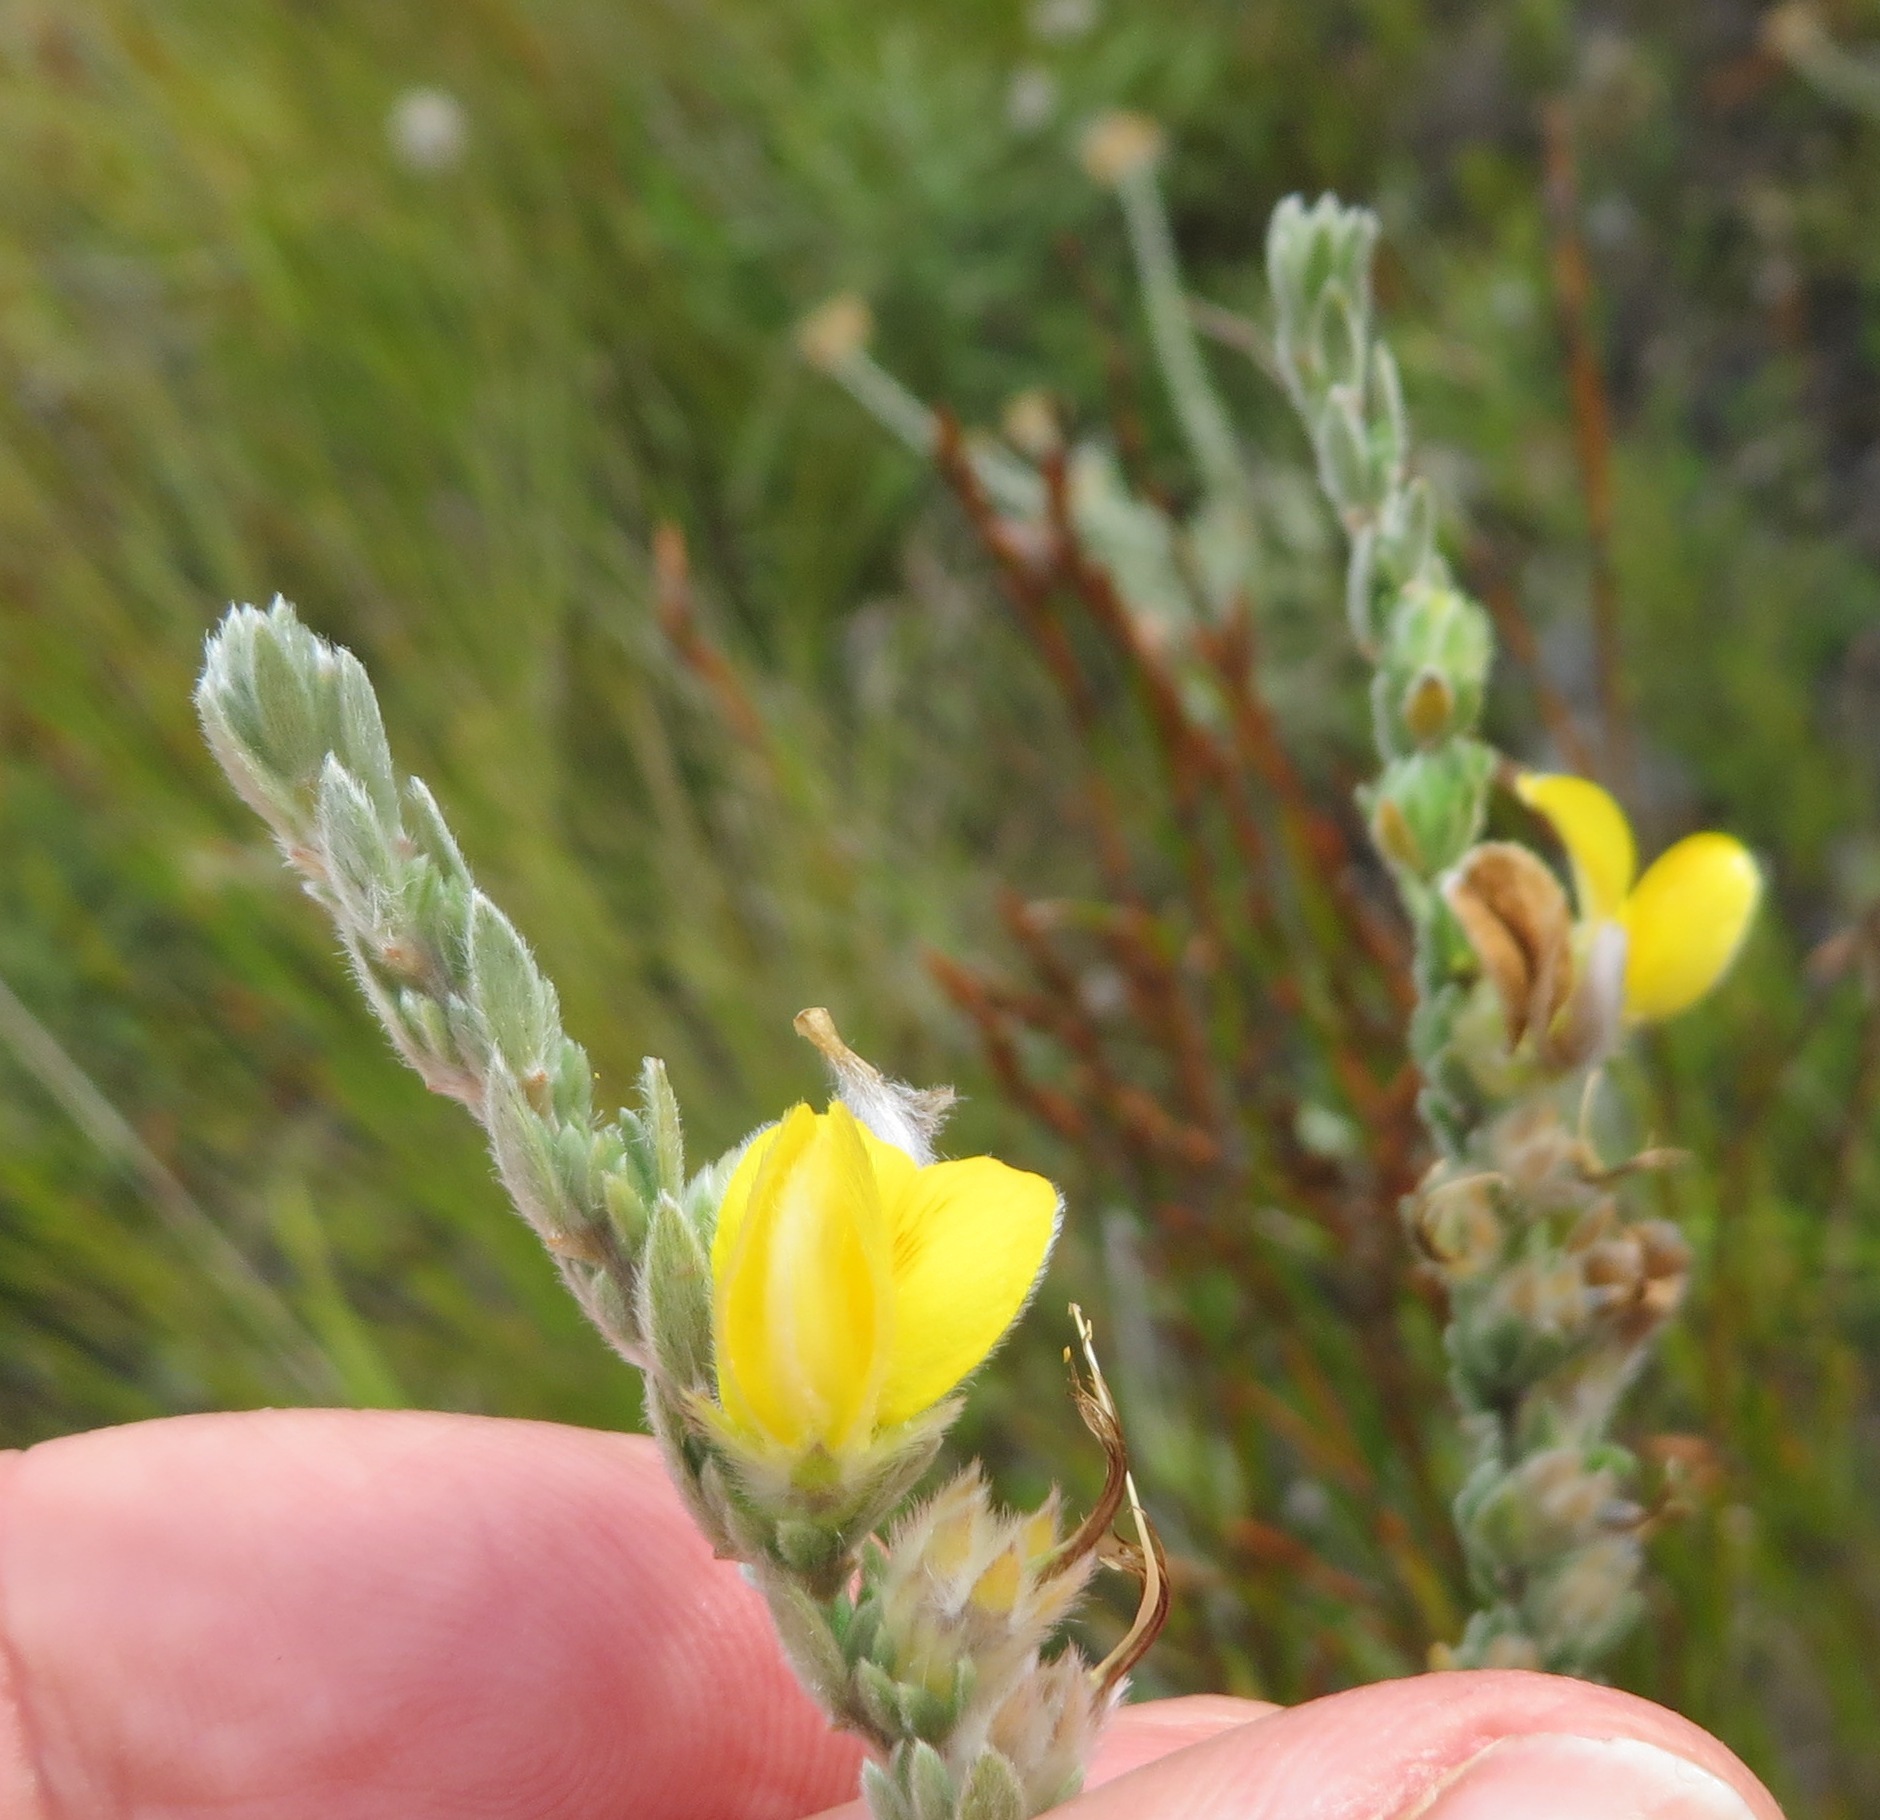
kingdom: Plantae
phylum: Tracheophyta
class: Magnoliopsida
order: Fabales
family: Fabaceae
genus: Aspalathus
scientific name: Aspalathus caledonensis
